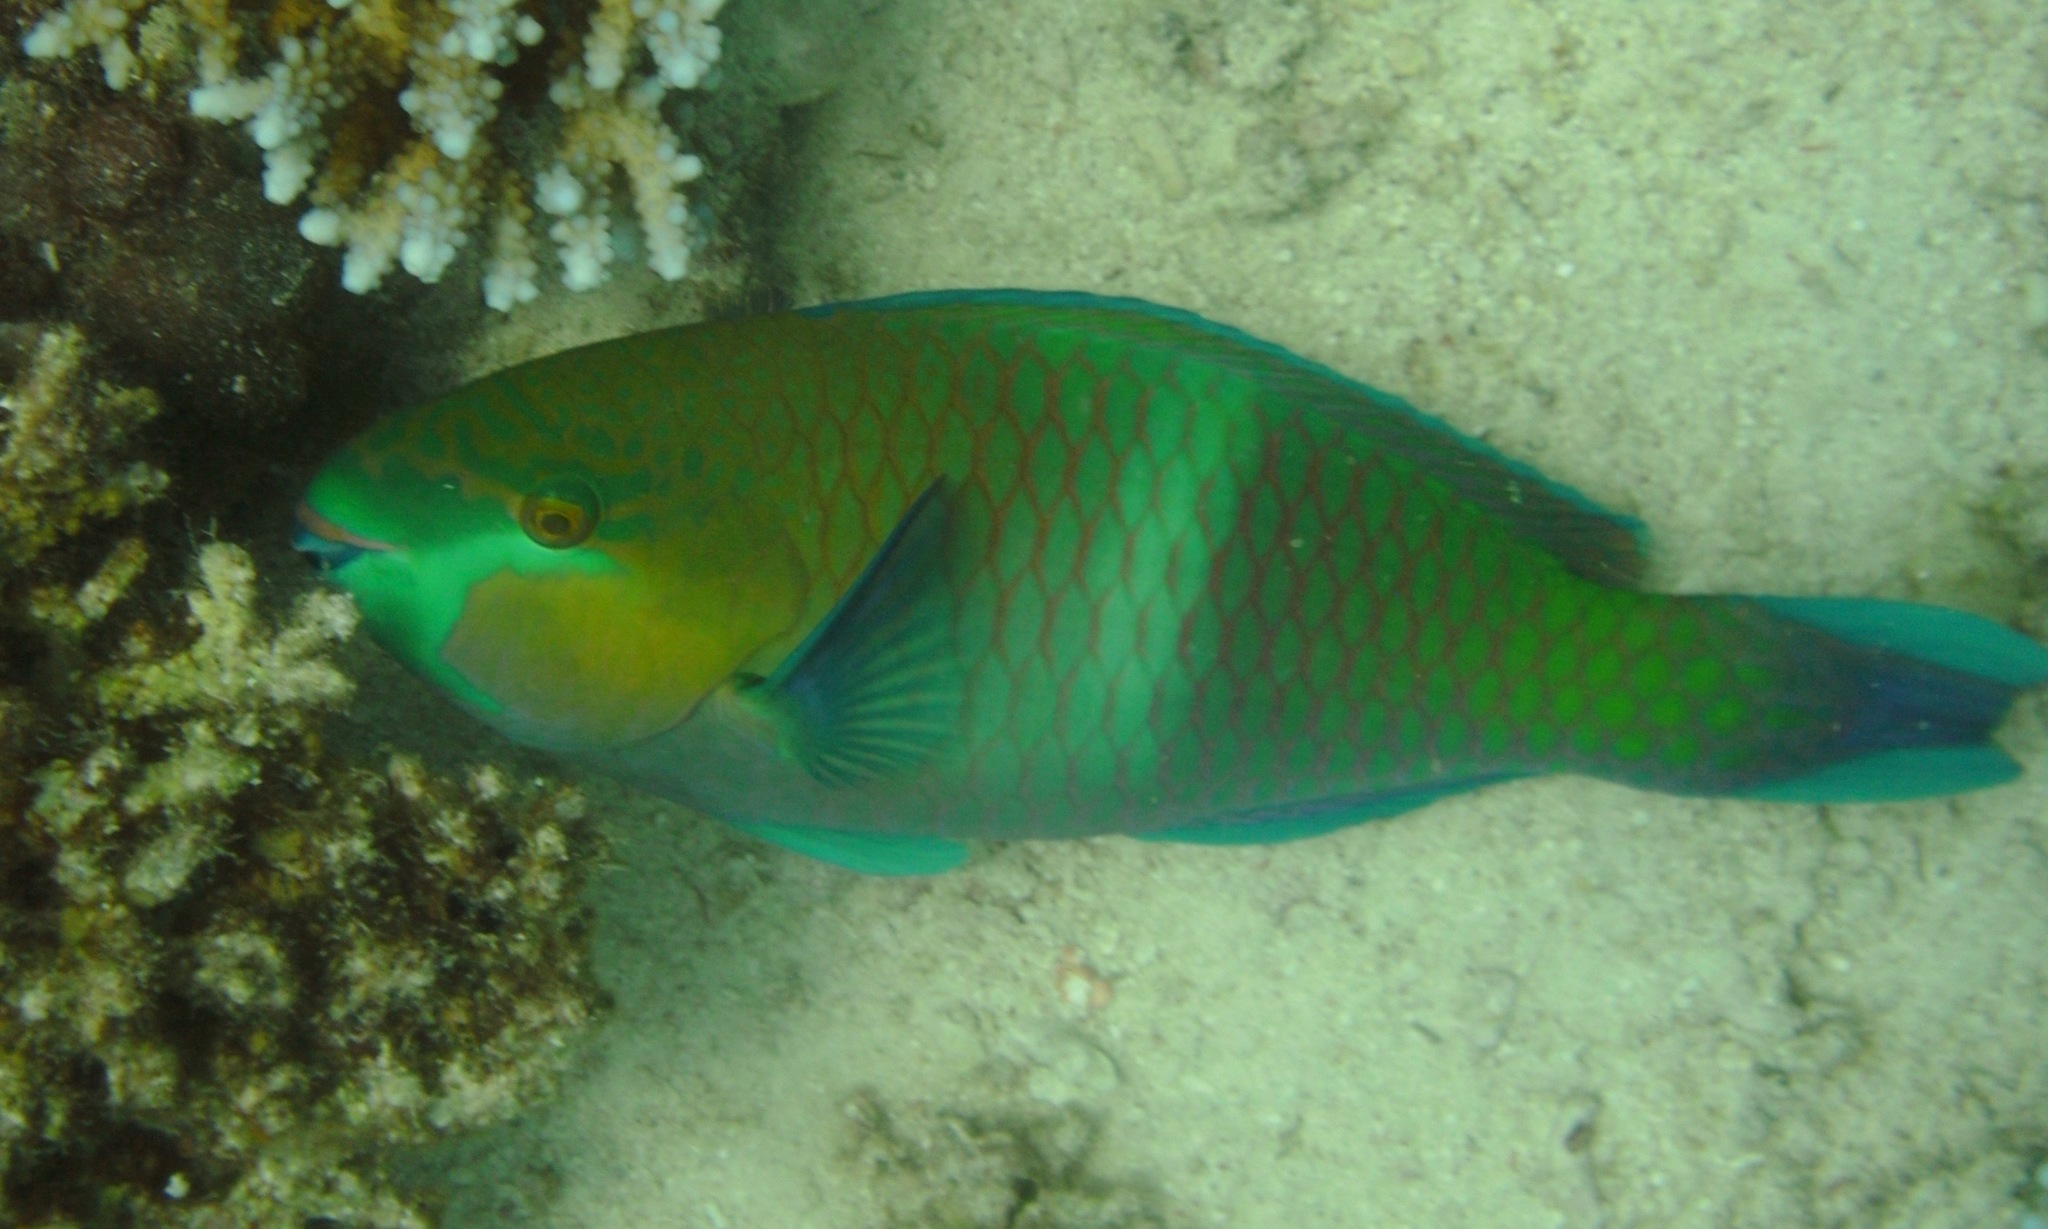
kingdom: Animalia
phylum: Chordata
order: Perciformes
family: Scaridae
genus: Scarus
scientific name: Scarus ferrugineus
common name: Rusty parrotfish
